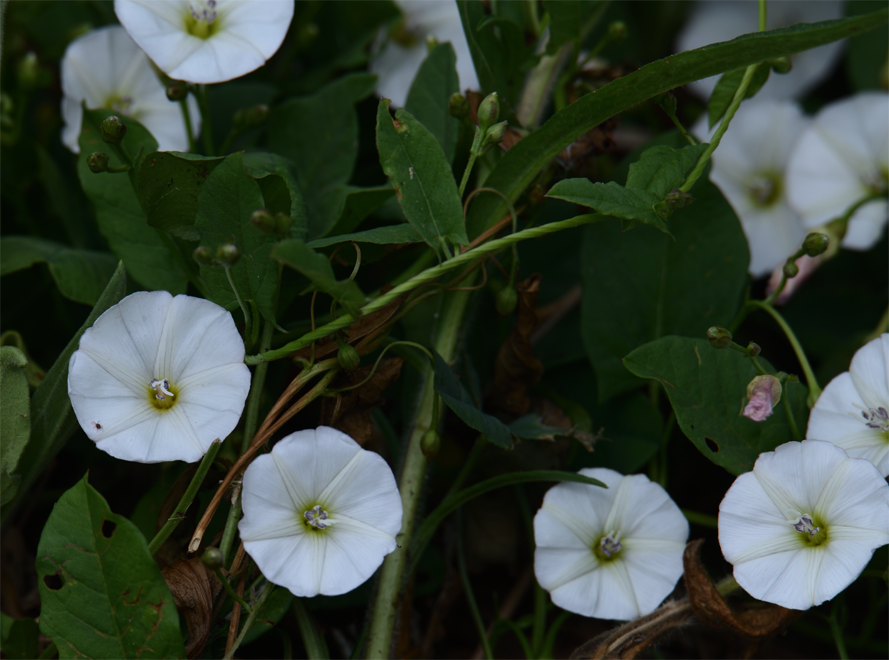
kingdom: Plantae
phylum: Tracheophyta
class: Magnoliopsida
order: Solanales
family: Convolvulaceae
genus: Convolvulus
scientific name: Convolvulus arvensis
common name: Field bindweed
